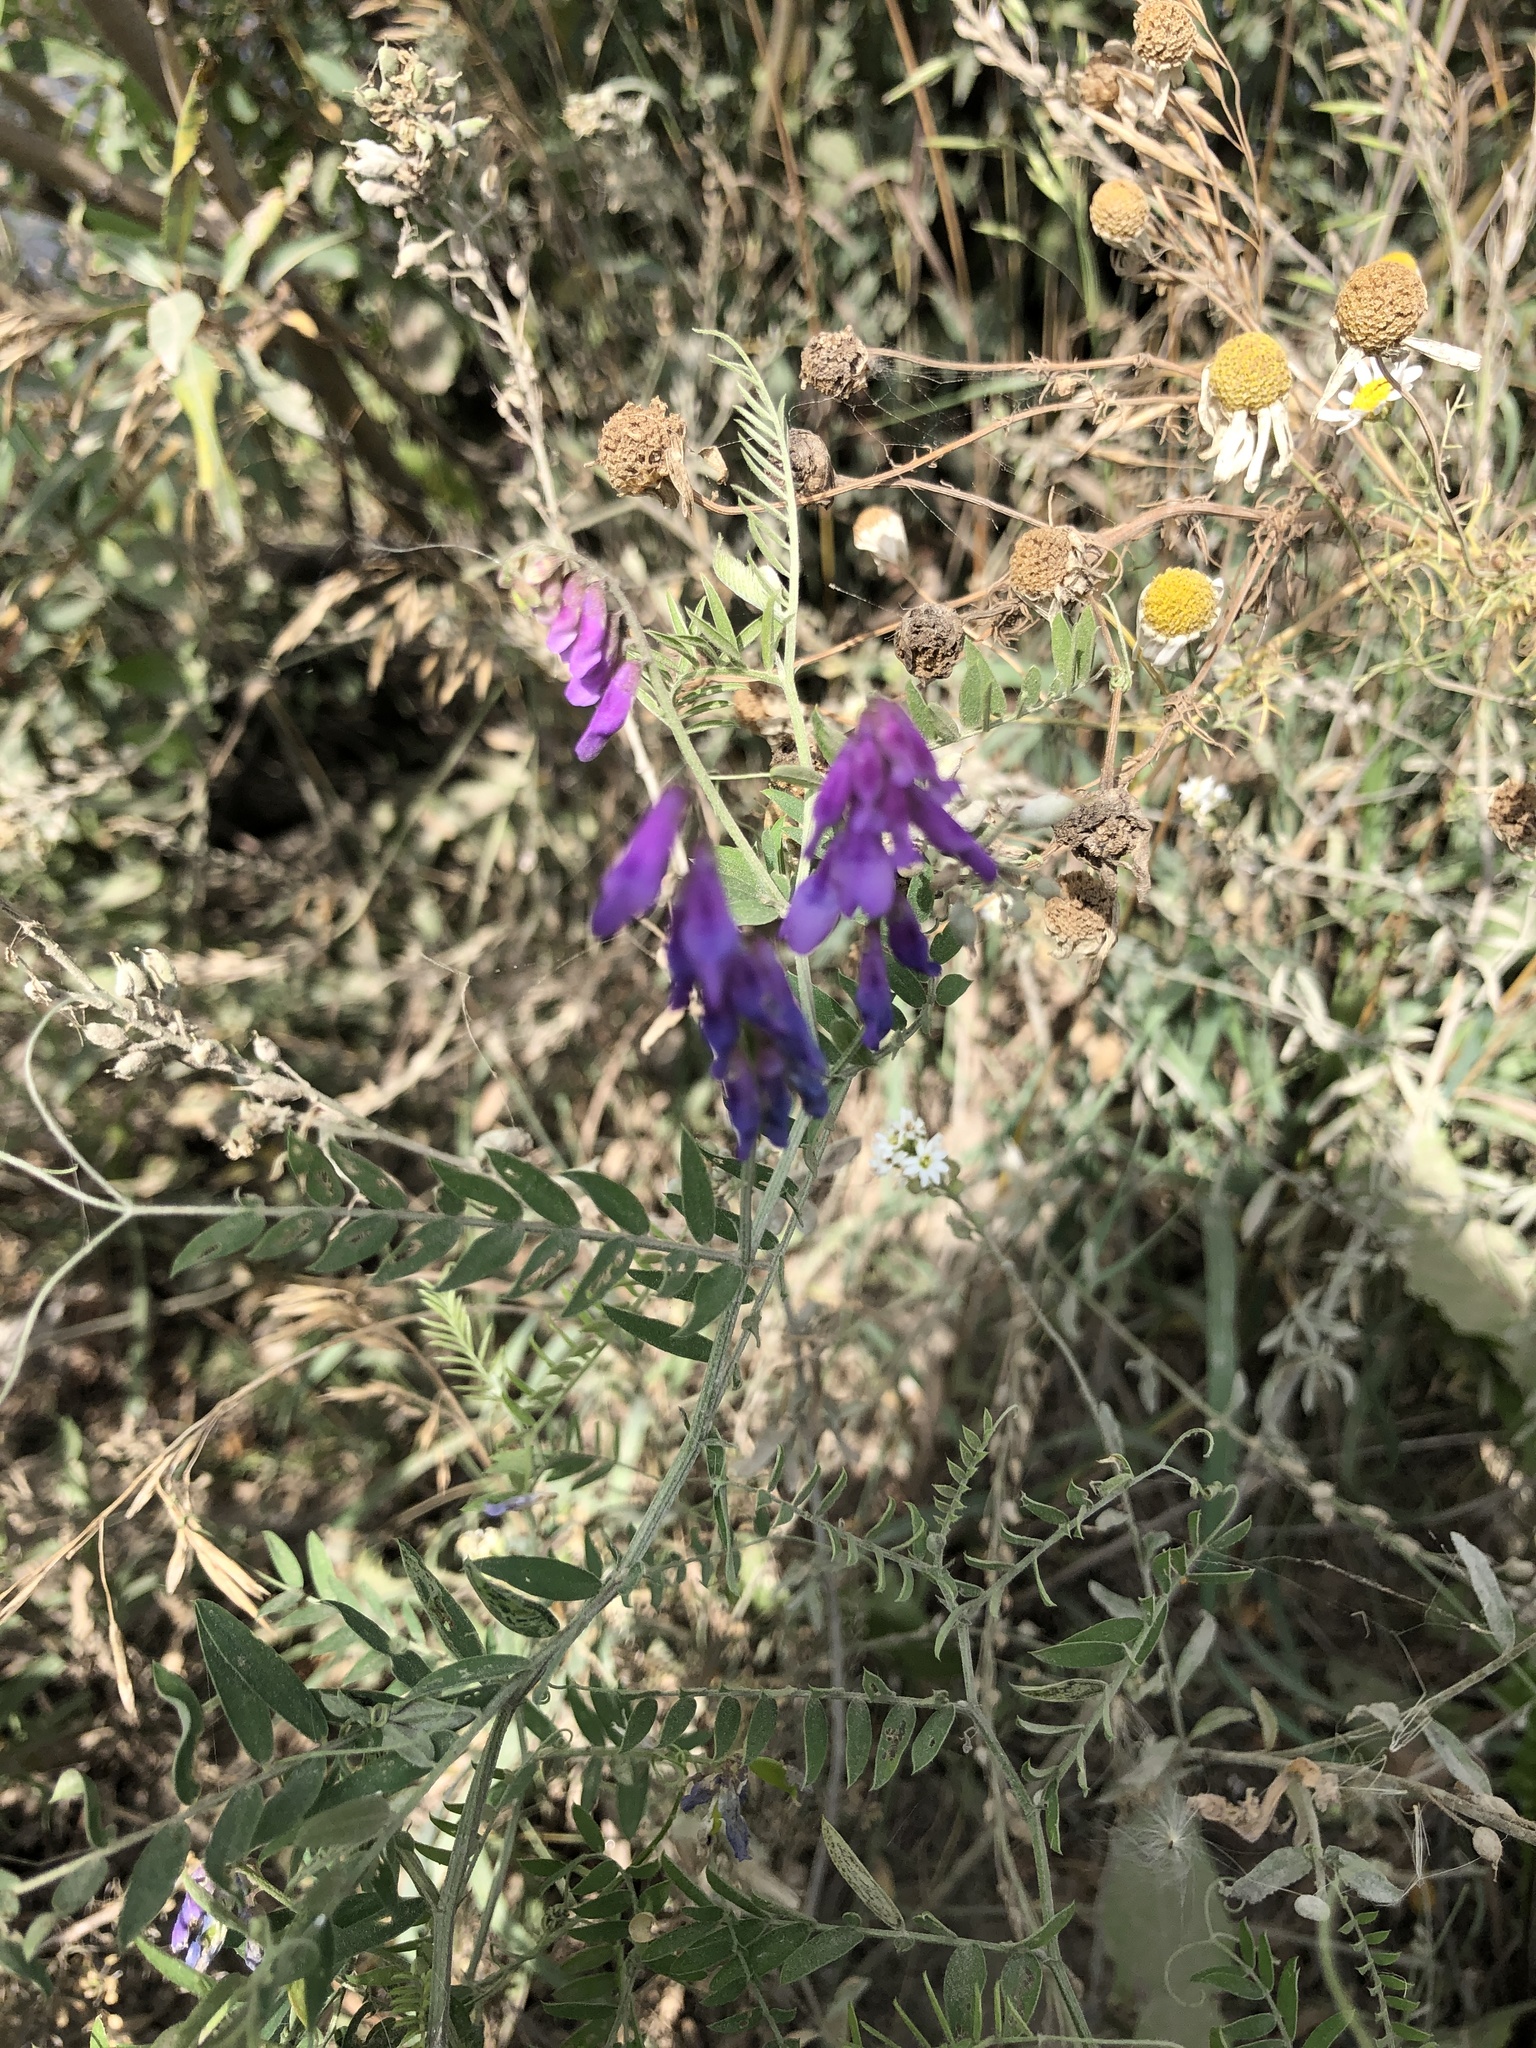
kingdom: Plantae
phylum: Tracheophyta
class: Magnoliopsida
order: Fabales
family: Fabaceae
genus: Vicia
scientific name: Vicia cracca
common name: Bird vetch
